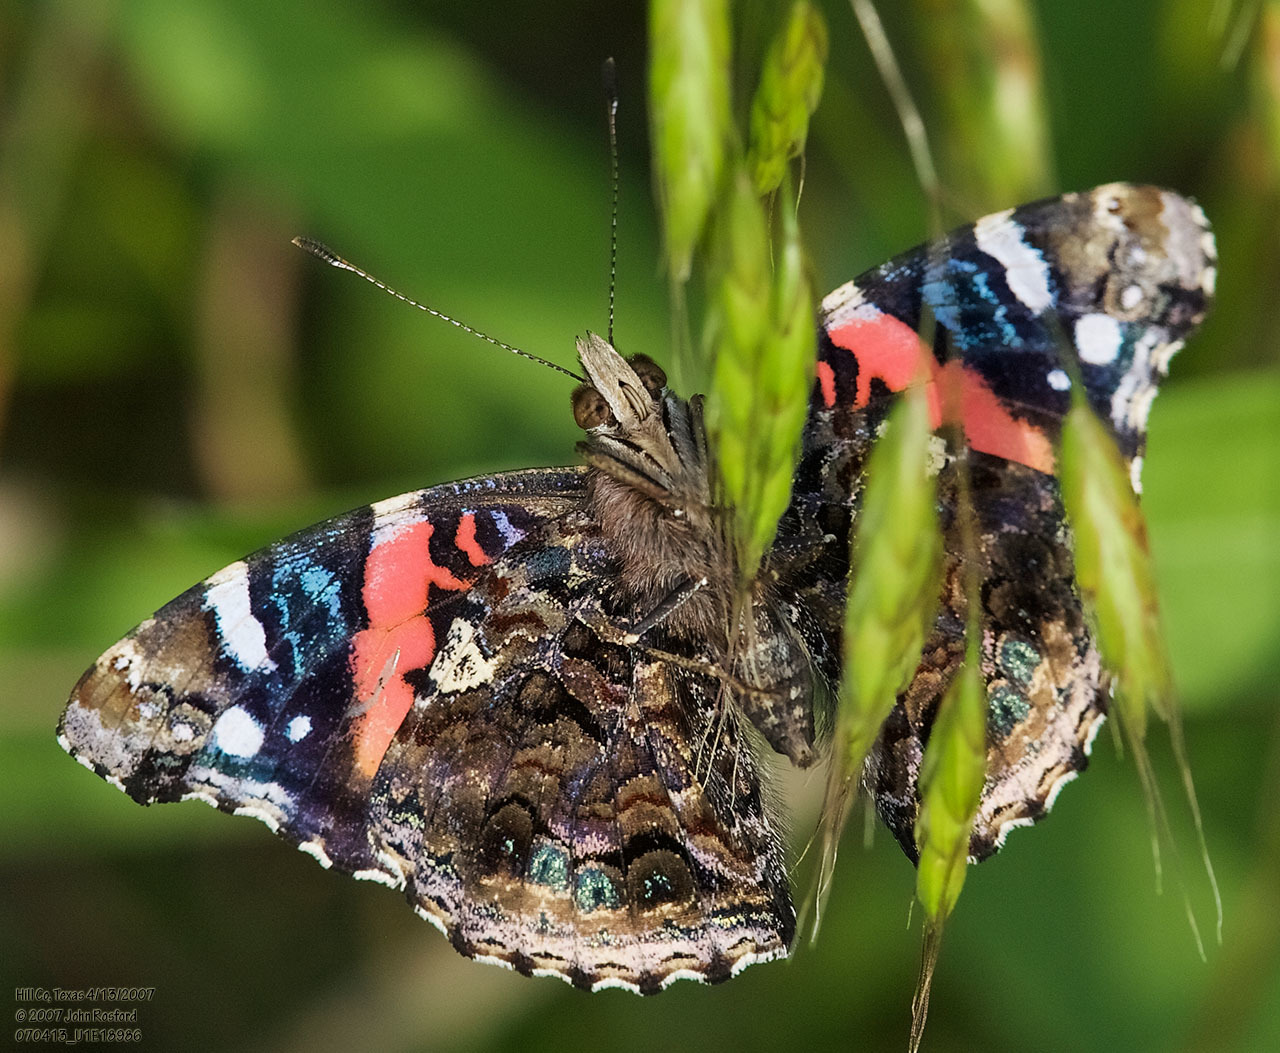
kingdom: Animalia
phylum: Arthropoda
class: Insecta
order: Lepidoptera
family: Nymphalidae
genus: Vanessa
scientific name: Vanessa atalanta
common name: Red admiral
